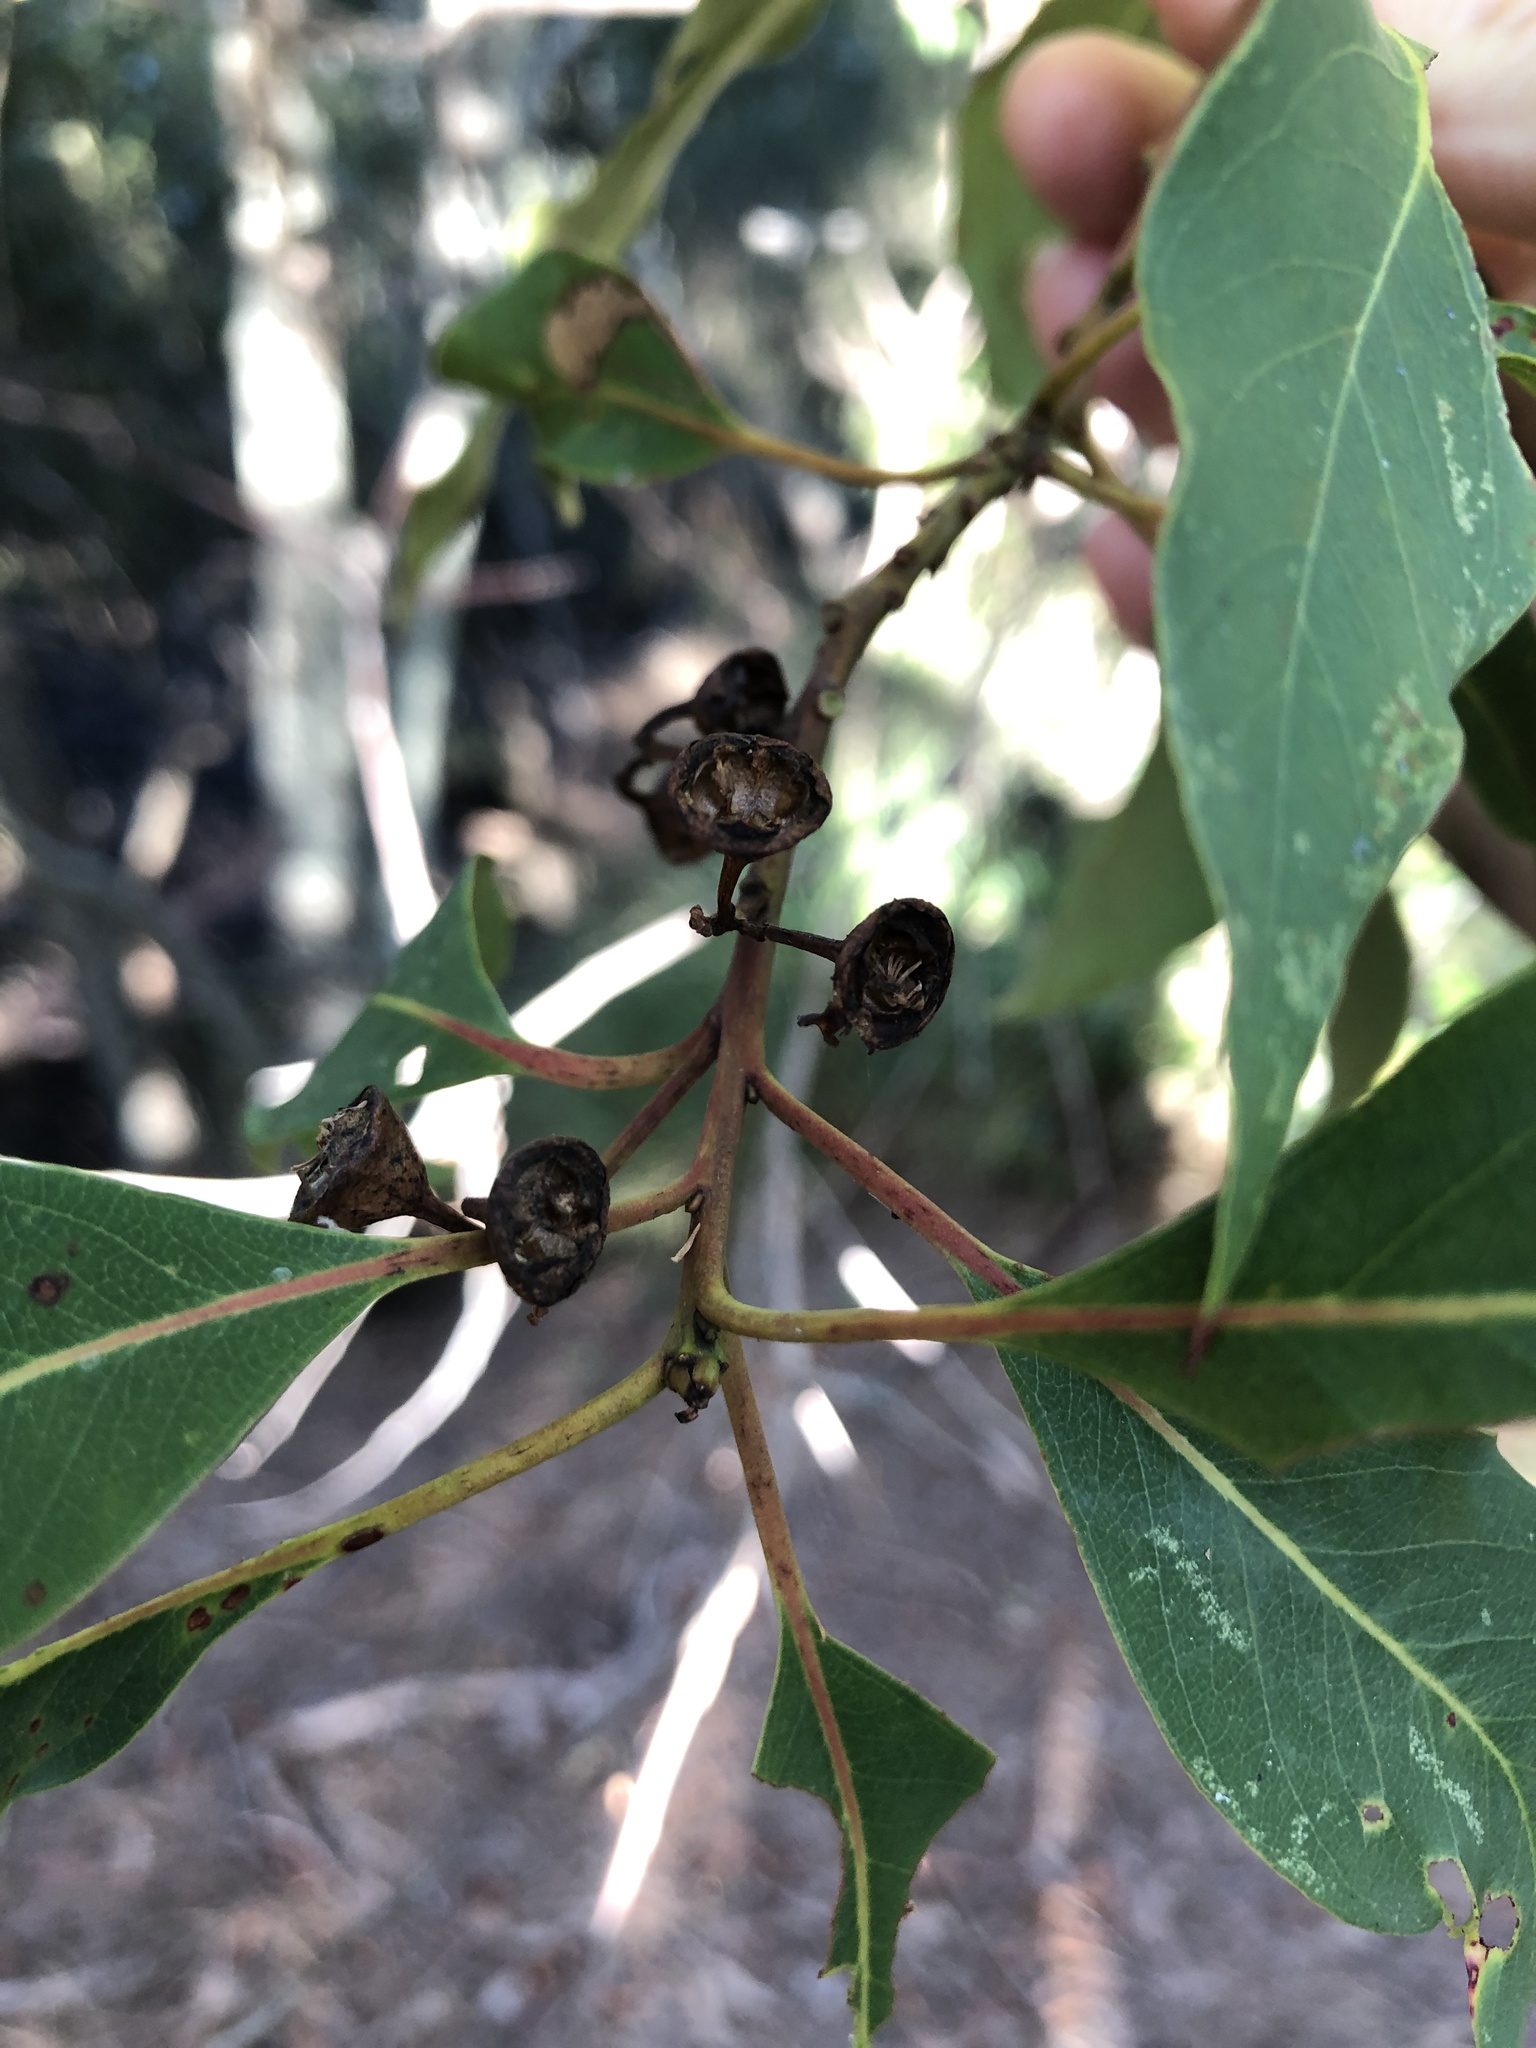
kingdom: Plantae
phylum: Tracheophyta
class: Magnoliopsida
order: Myrtales
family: Myrtaceae
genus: Lophostemon
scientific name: Lophostemon suaveolens
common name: Paperbark-mahogany
